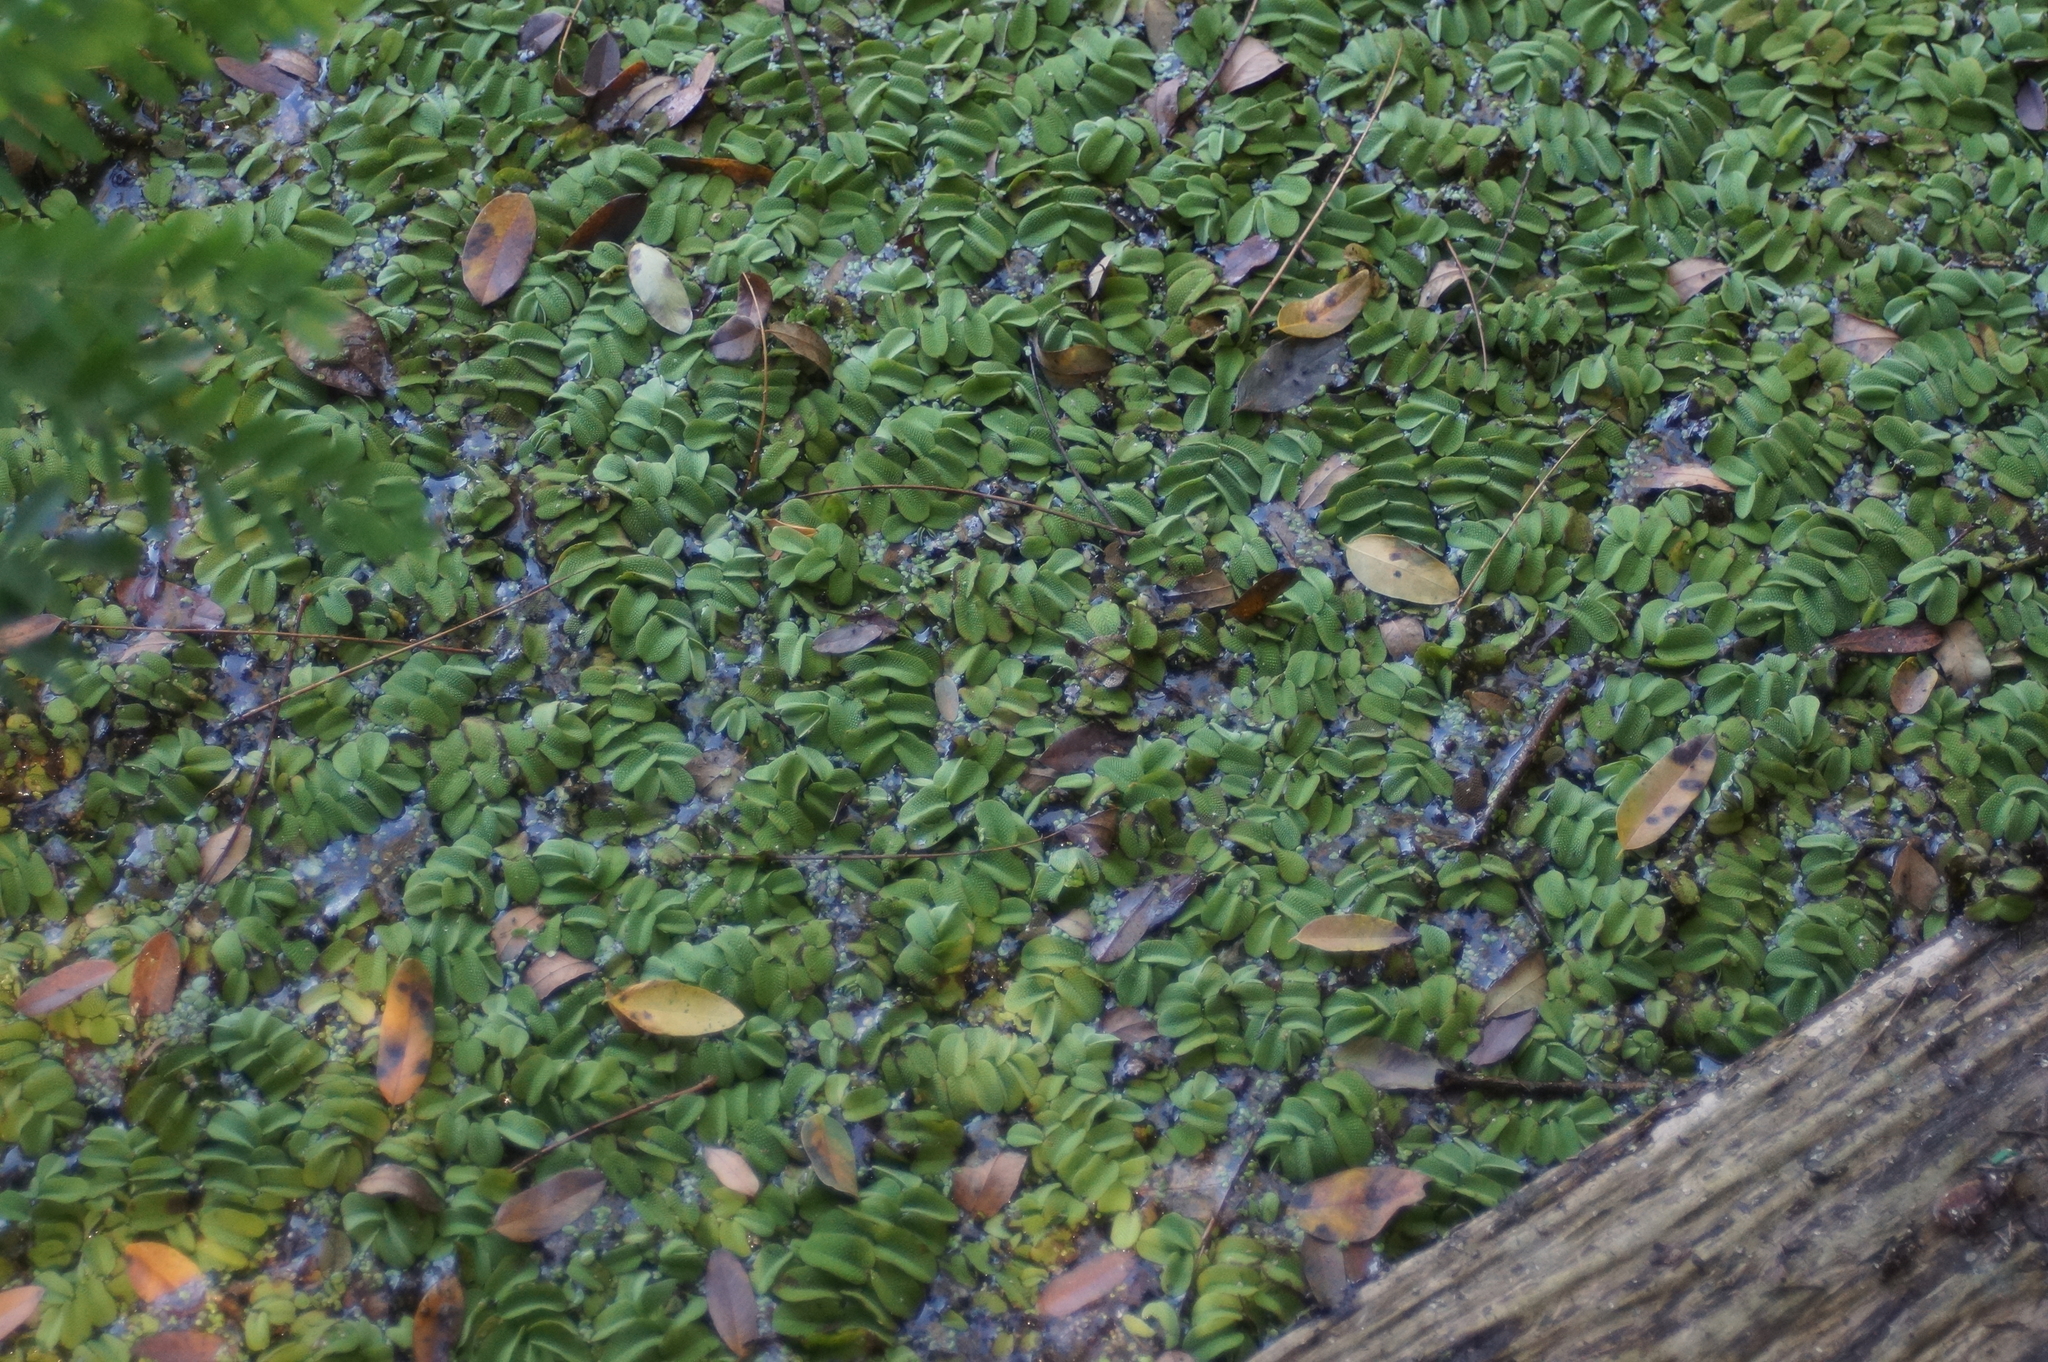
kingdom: Plantae
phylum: Tracheophyta
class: Polypodiopsida
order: Salviniales
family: Salviniaceae
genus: Salvinia
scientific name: Salvinia natans
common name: Floating fern
